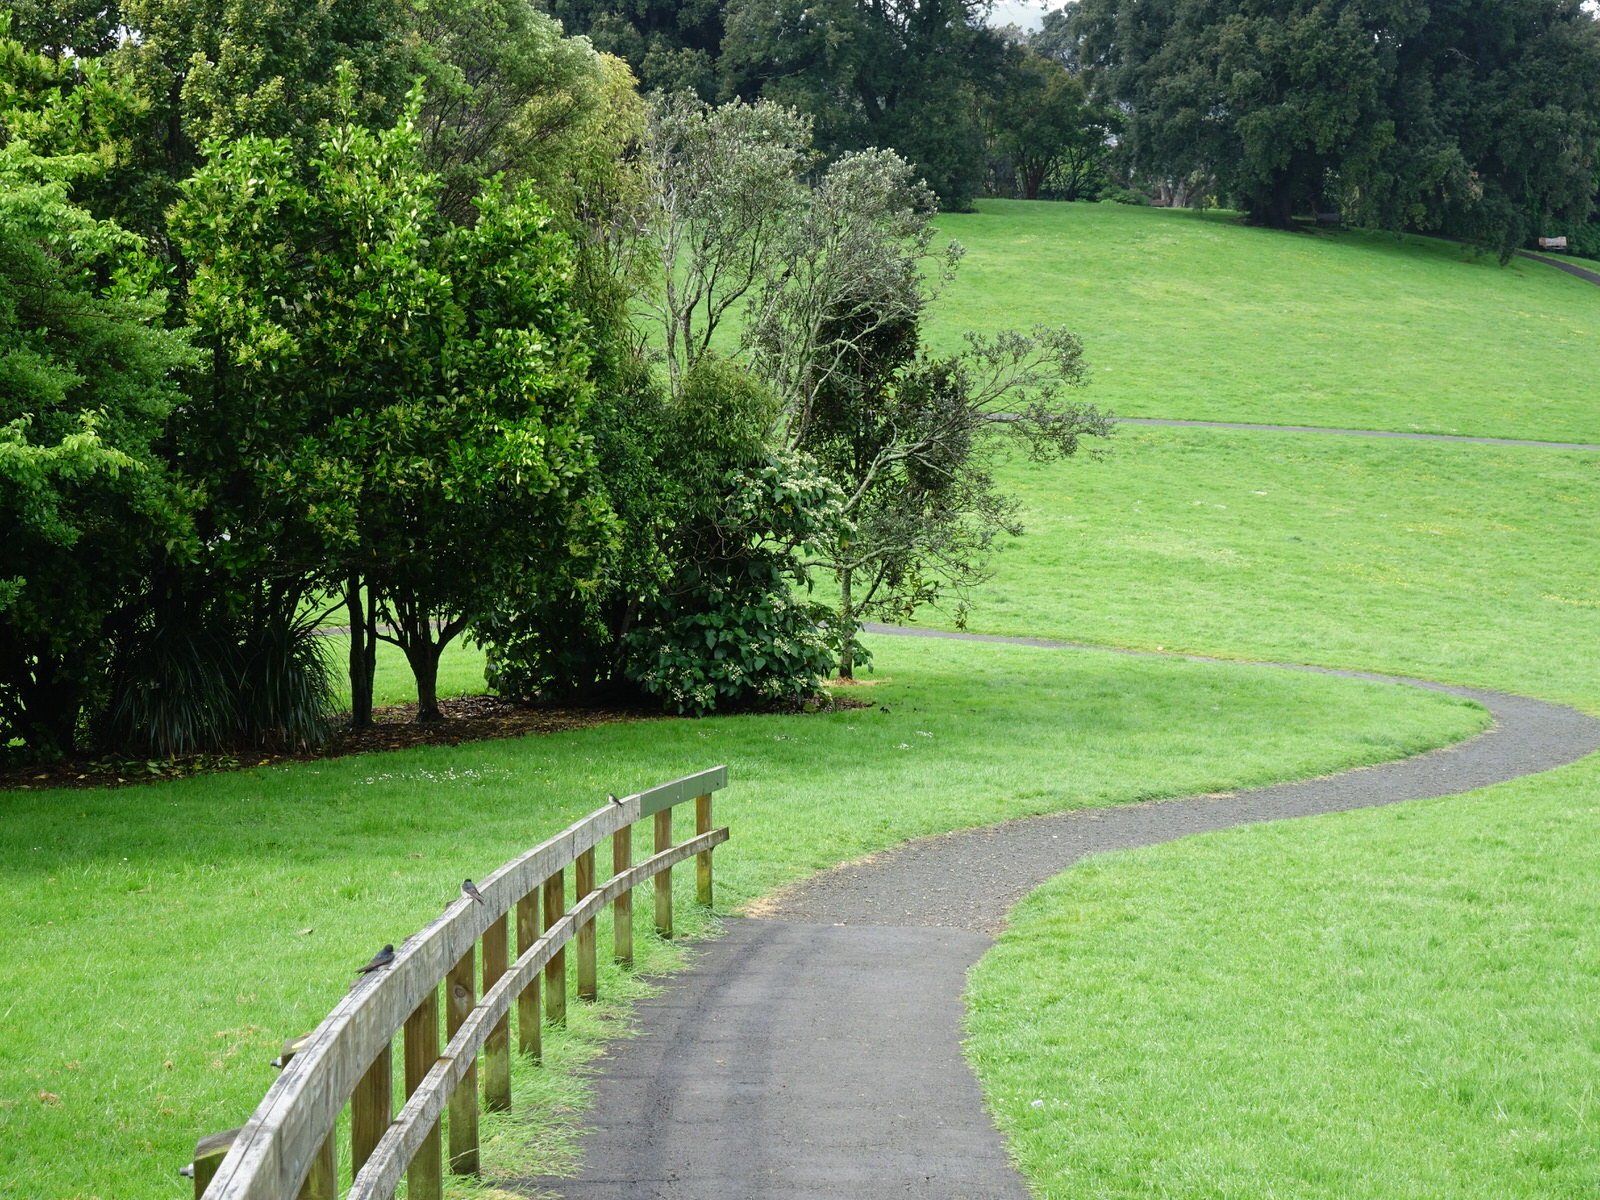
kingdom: Animalia
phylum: Chordata
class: Aves
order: Passeriformes
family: Hirundinidae
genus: Hirundo
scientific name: Hirundo neoxena
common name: Welcome swallow
